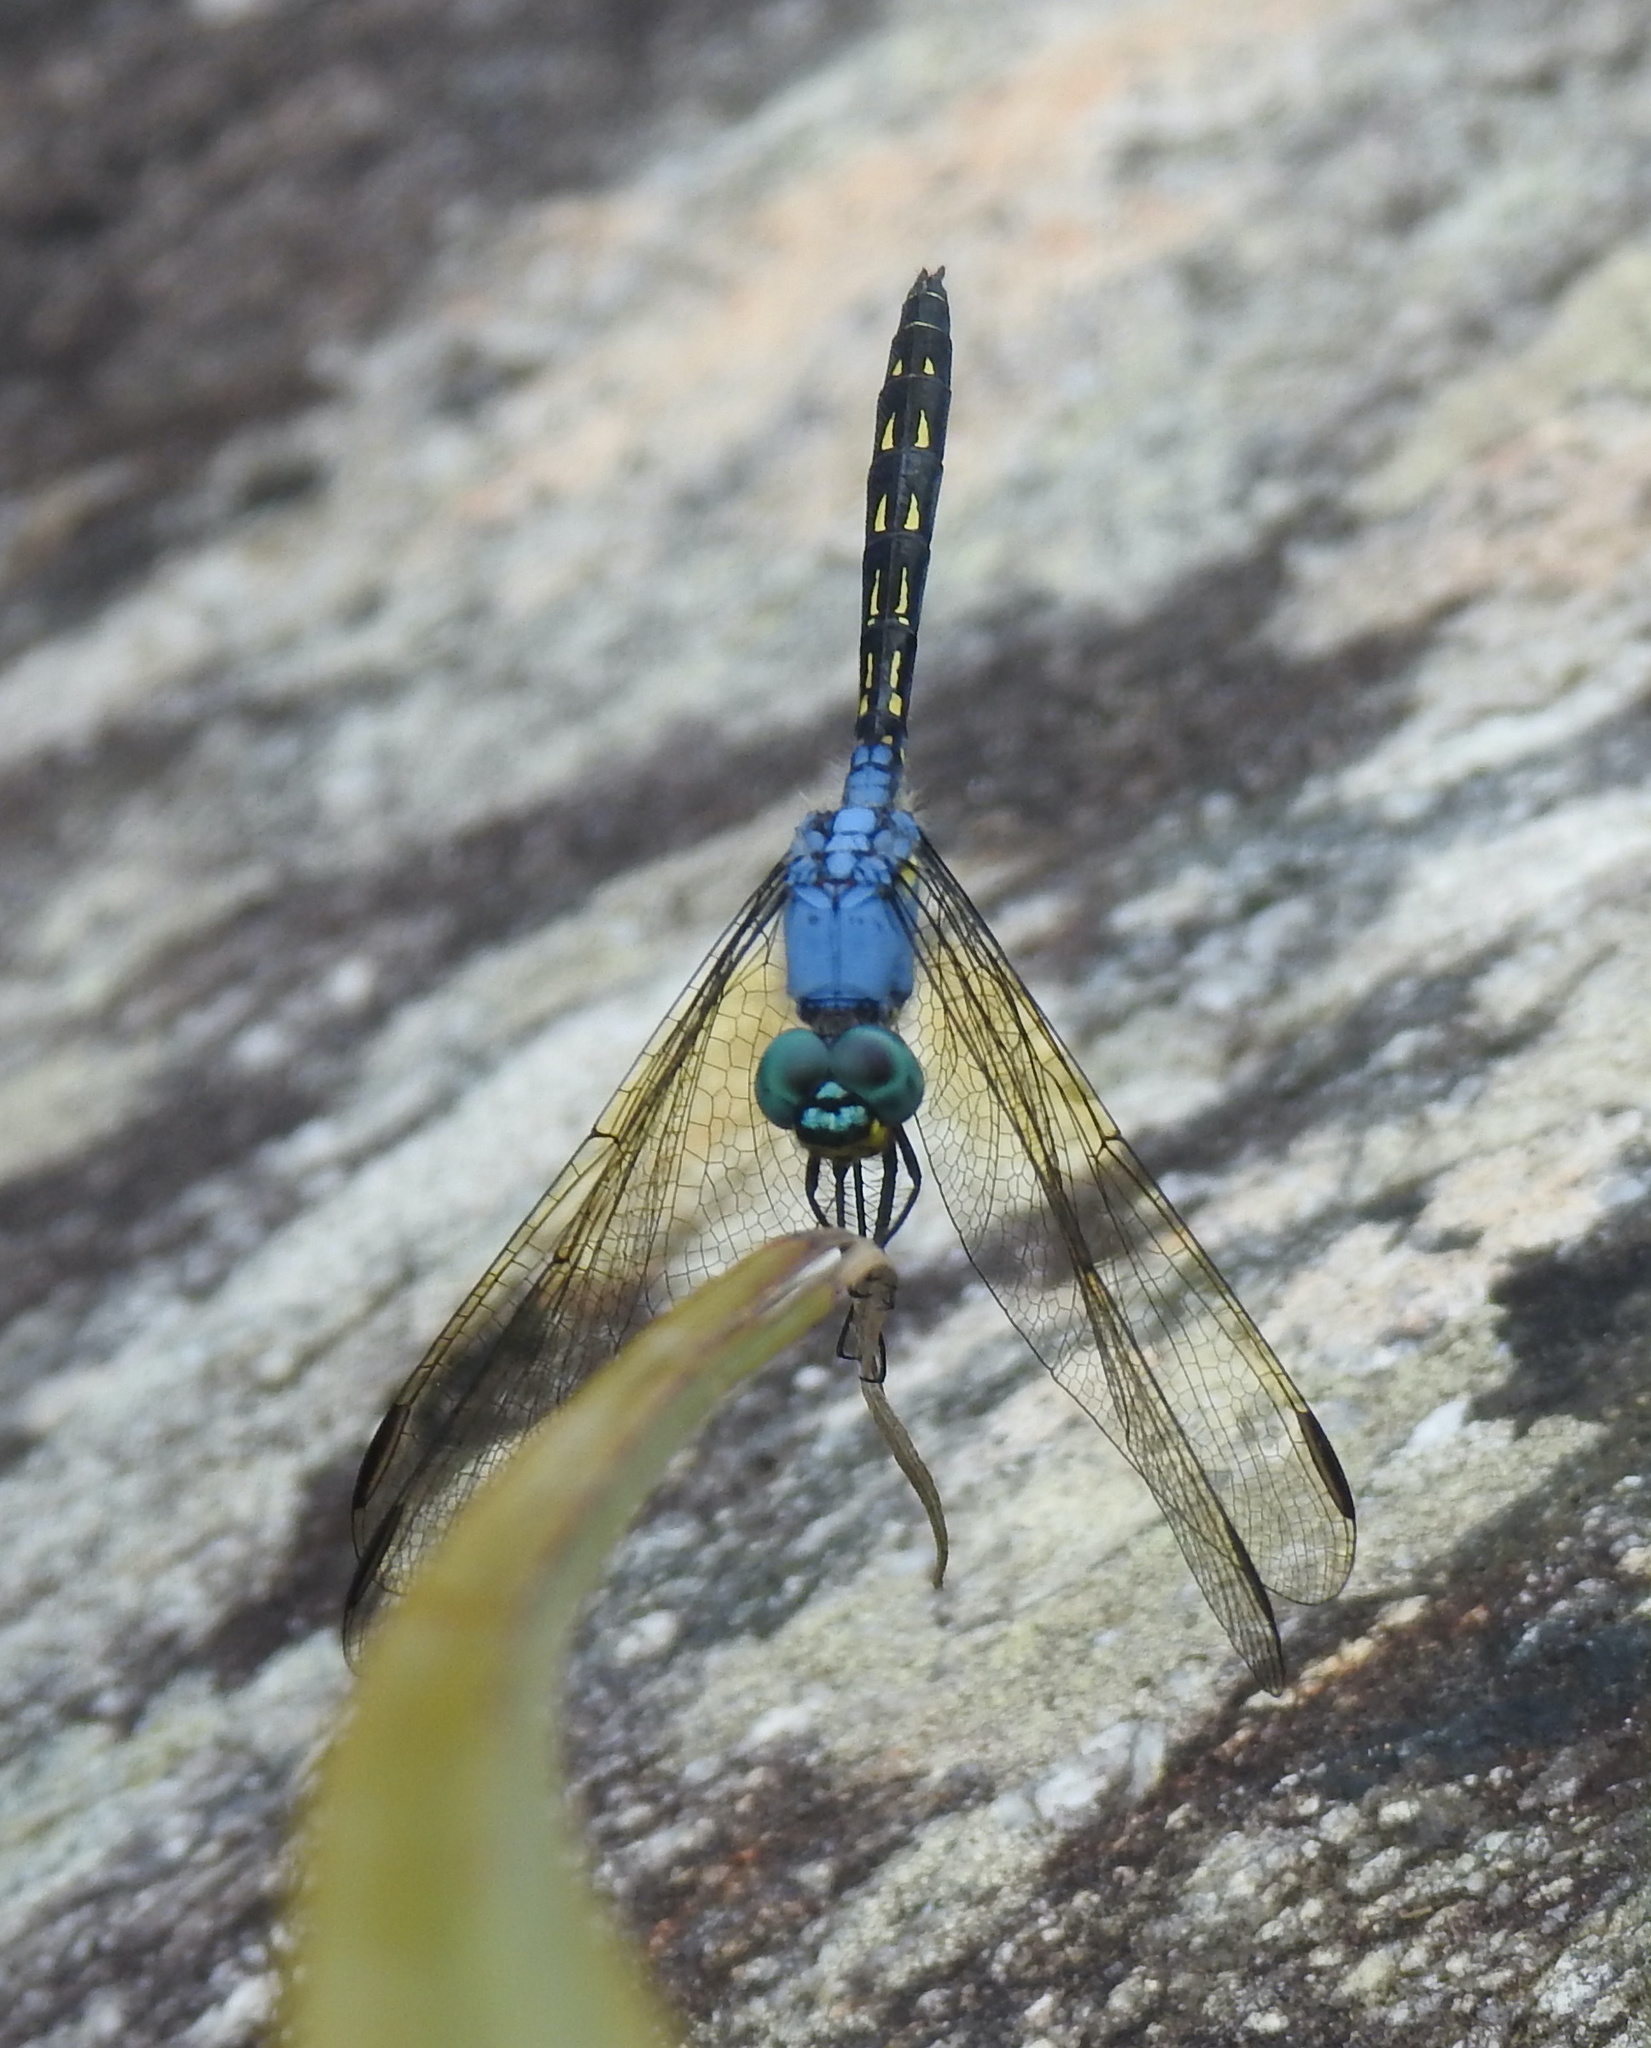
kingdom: Animalia
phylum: Arthropoda
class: Insecta
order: Odonata
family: Libellulidae
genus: Trithemis
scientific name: Trithemis stictica
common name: Jaunty dropwing
